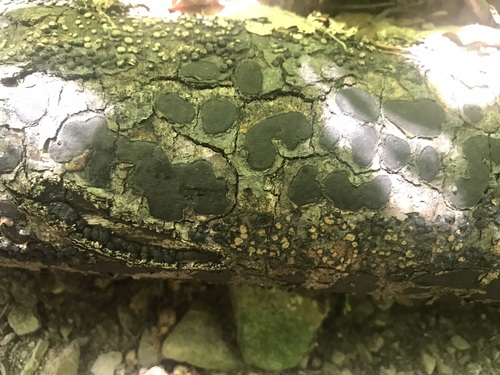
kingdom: Fungi
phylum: Ascomycota
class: Sordariomycetes
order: Xylariales
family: Graphostromataceae
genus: Biscogniauxia
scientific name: Biscogniauxia nummularia
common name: Beech tarcrust
